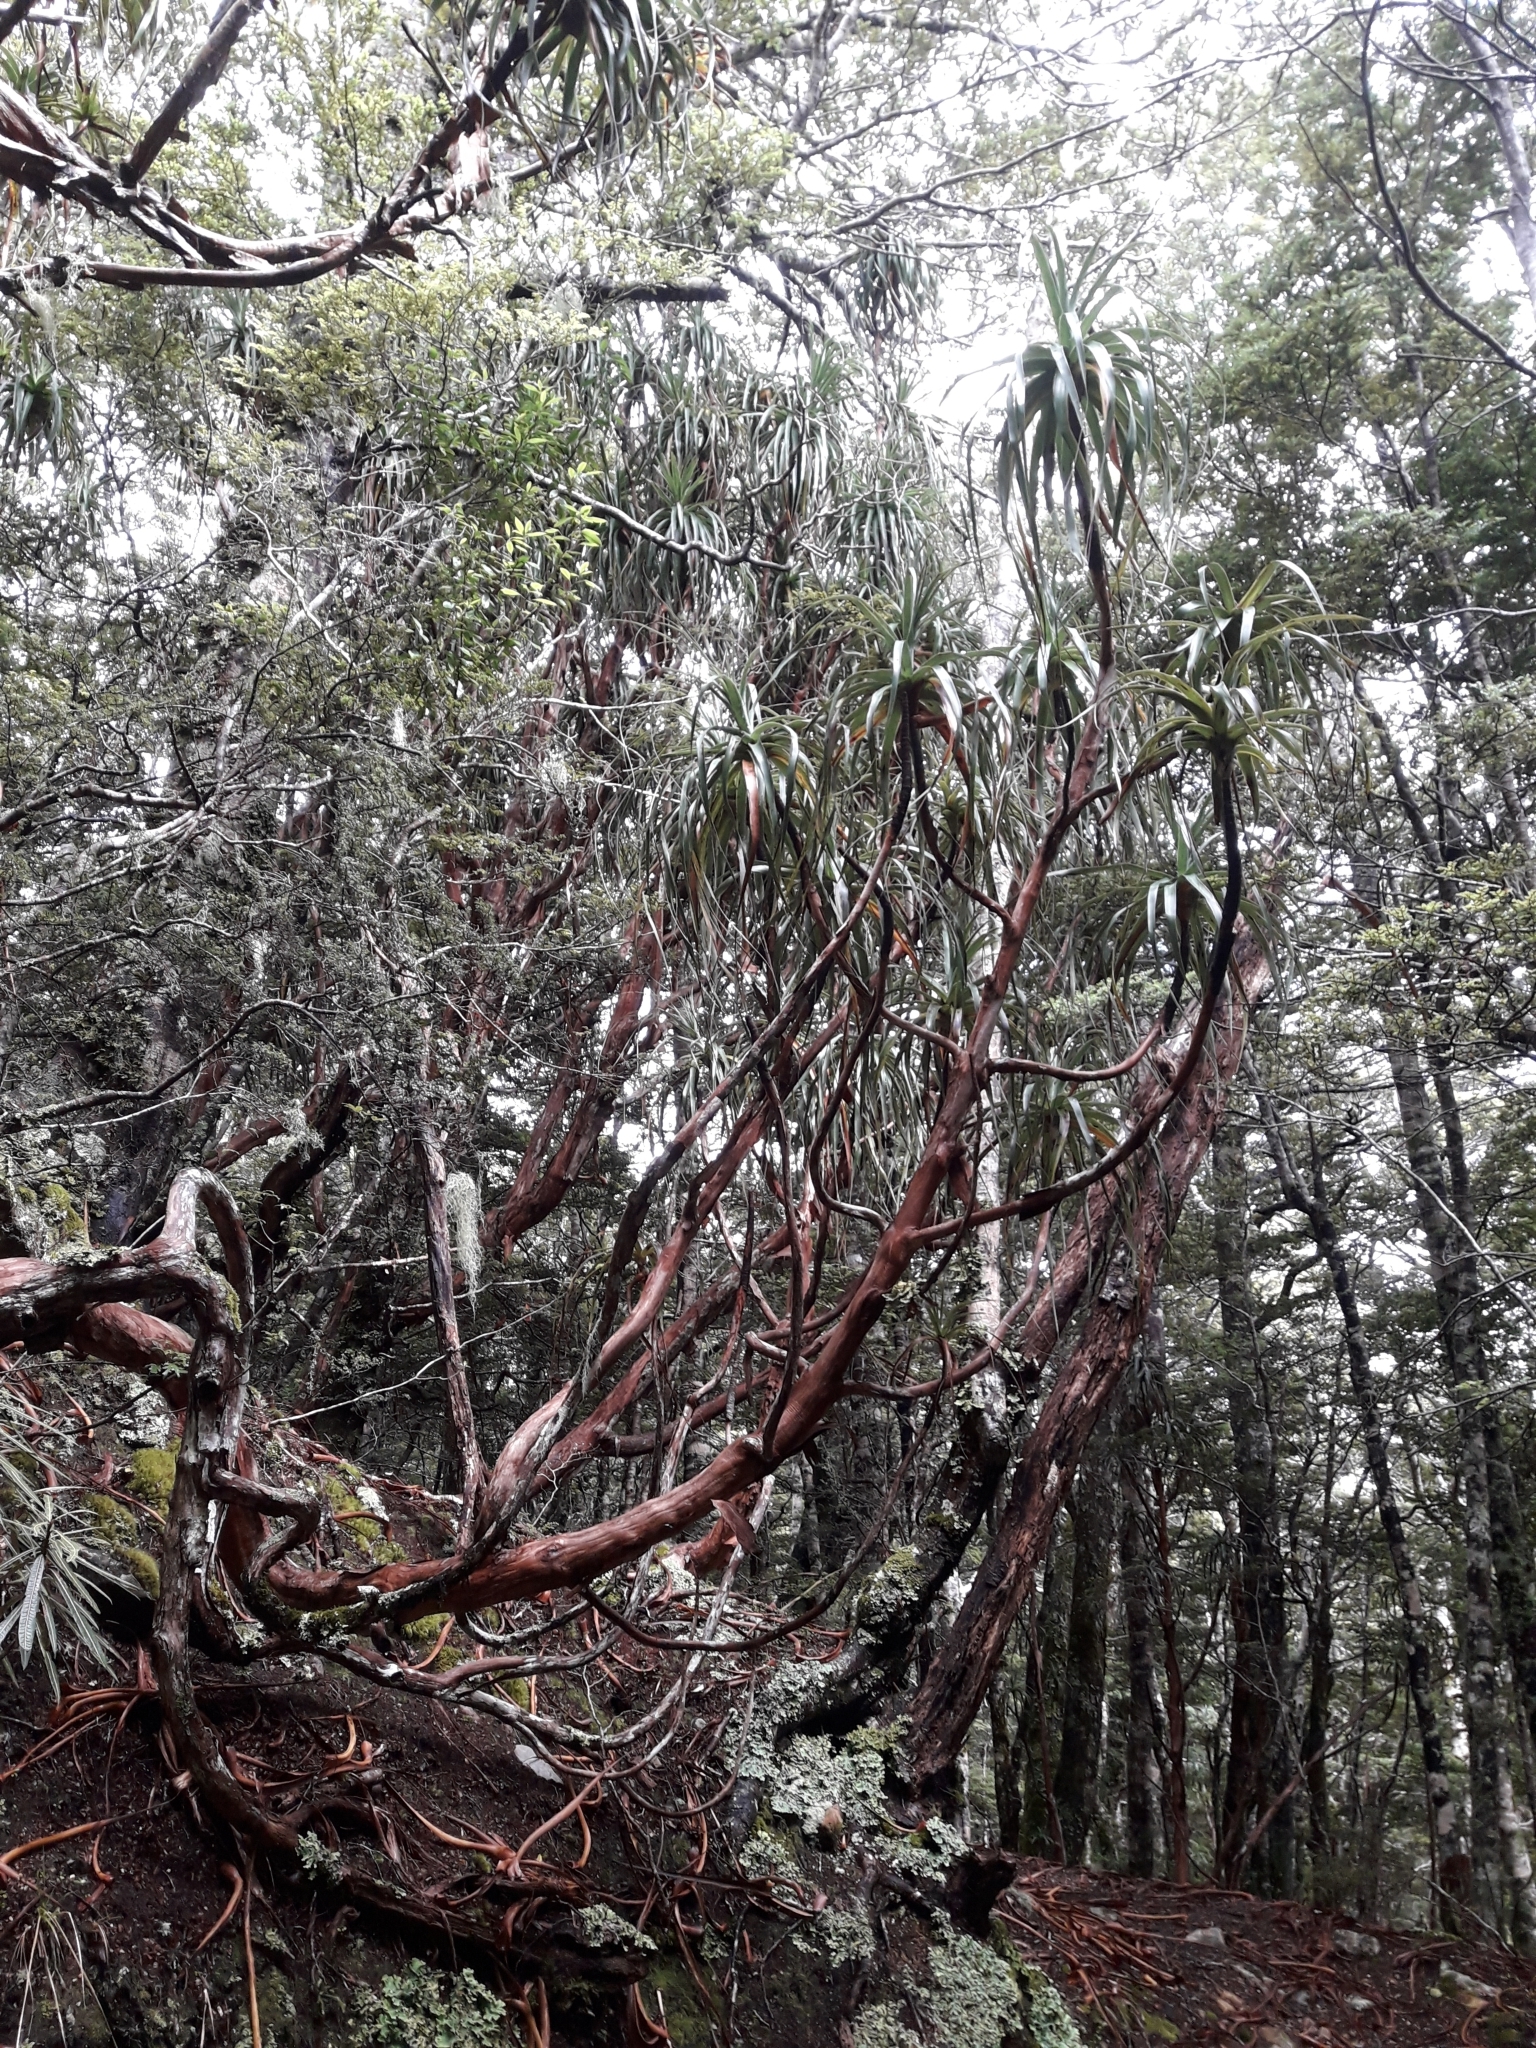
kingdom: Plantae
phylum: Tracheophyta
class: Magnoliopsida
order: Ericales
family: Ericaceae
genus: Dracophyllum
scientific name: Dracophyllum traversii
